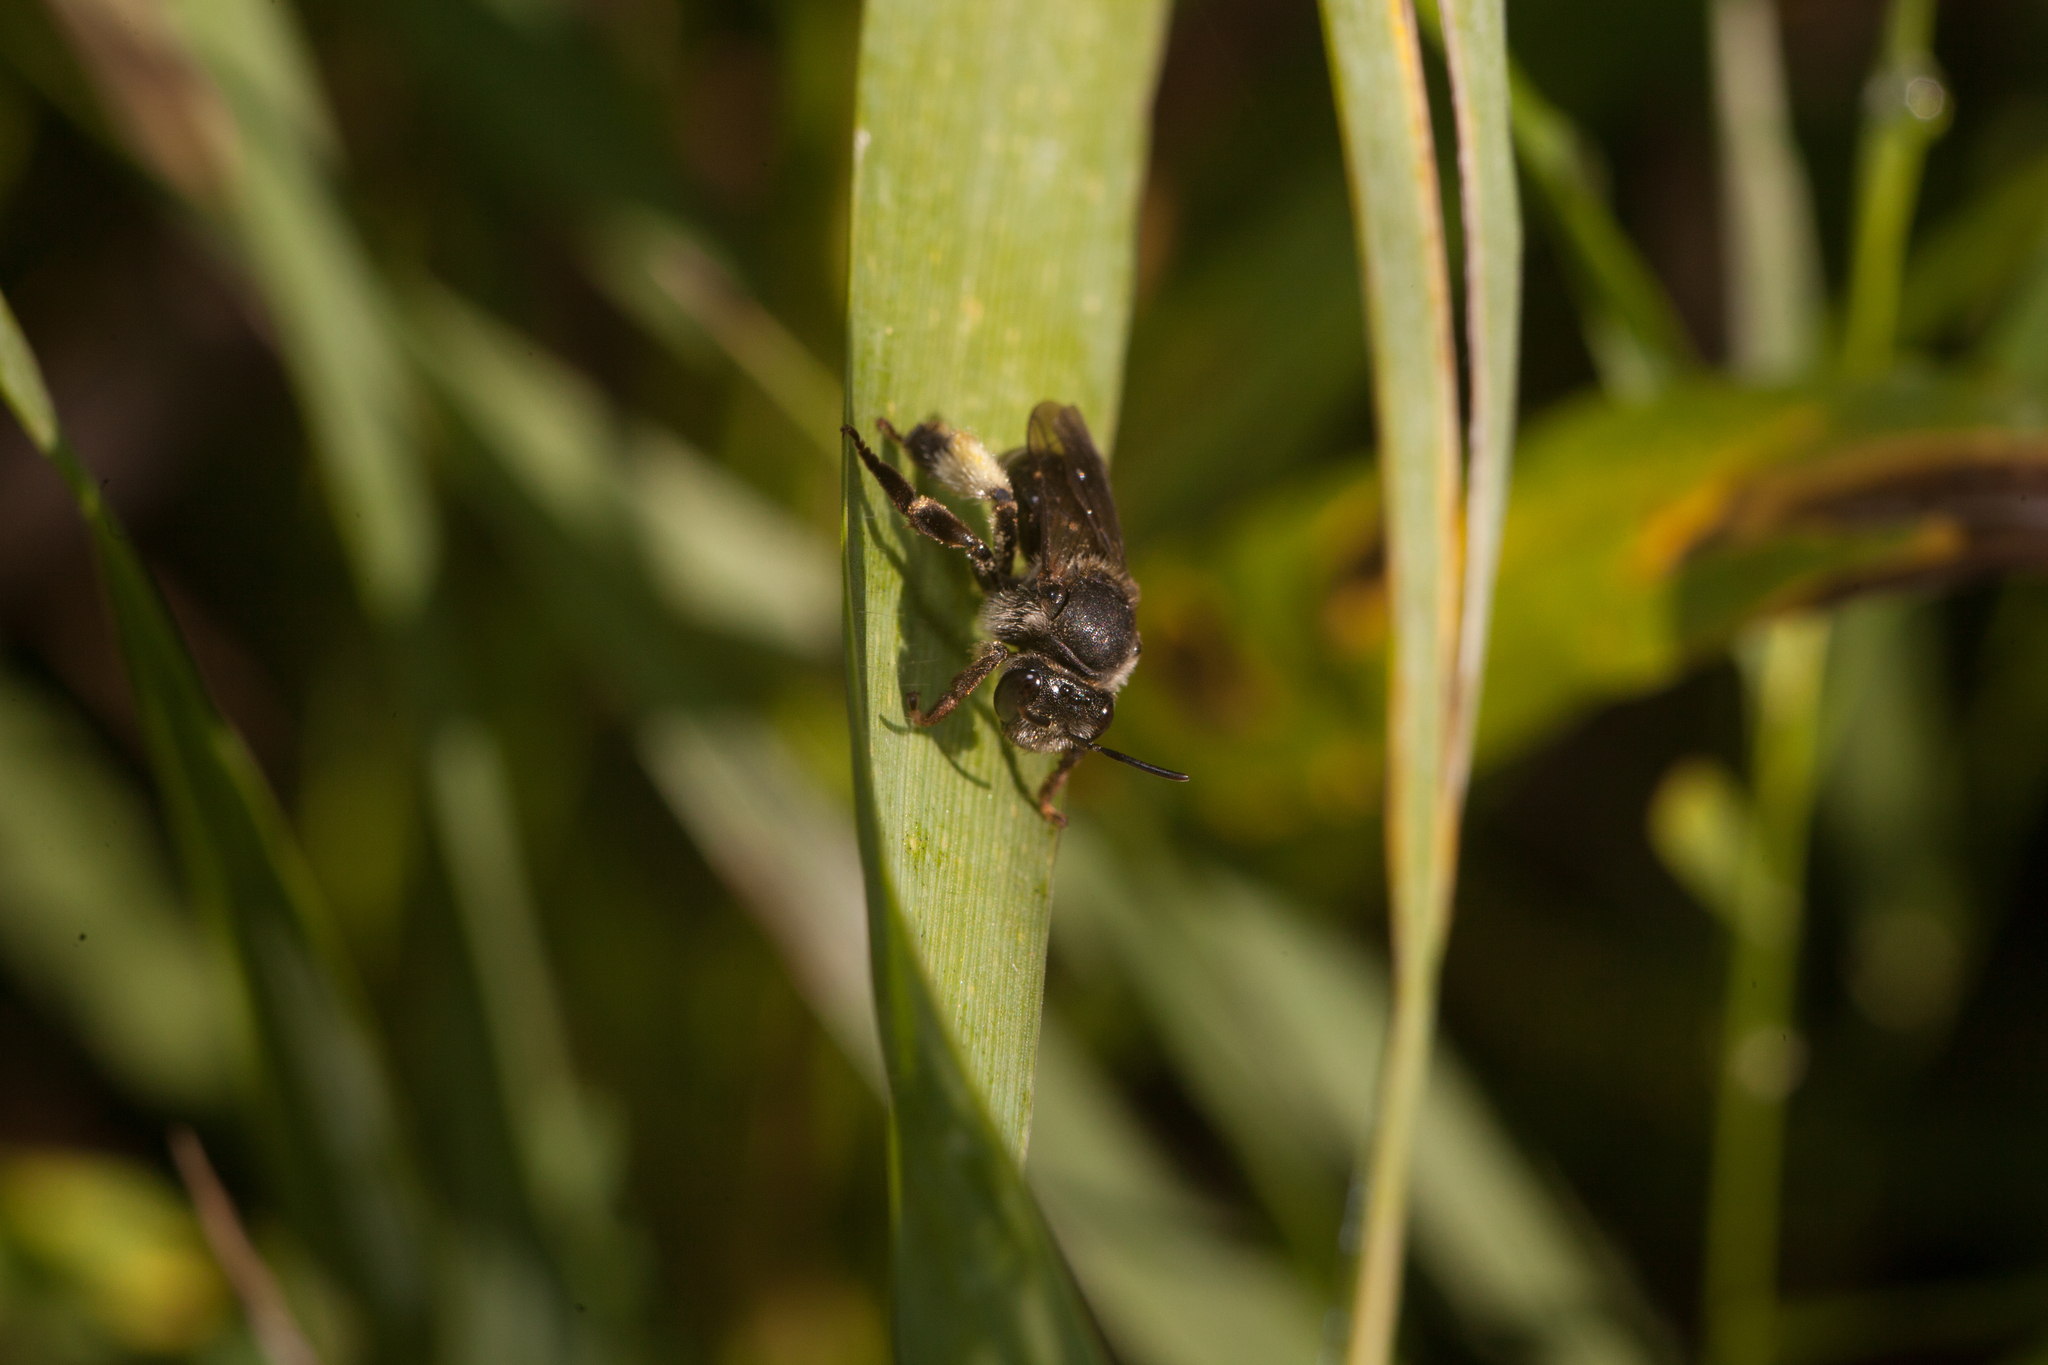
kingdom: Animalia
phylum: Arthropoda
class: Insecta
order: Hymenoptera
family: Melittidae
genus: Macropis
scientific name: Macropis europaea
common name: Yellow loosestrife bee
